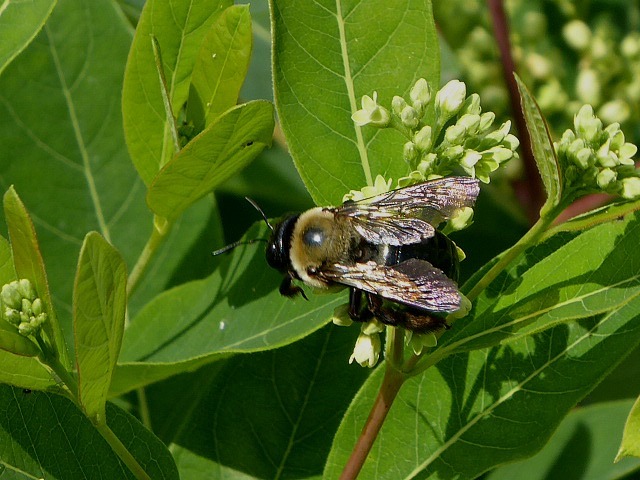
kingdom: Animalia
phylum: Arthropoda
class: Insecta
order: Hymenoptera
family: Apidae
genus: Xylocopa
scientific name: Xylocopa virginica
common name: Carpenter bee
